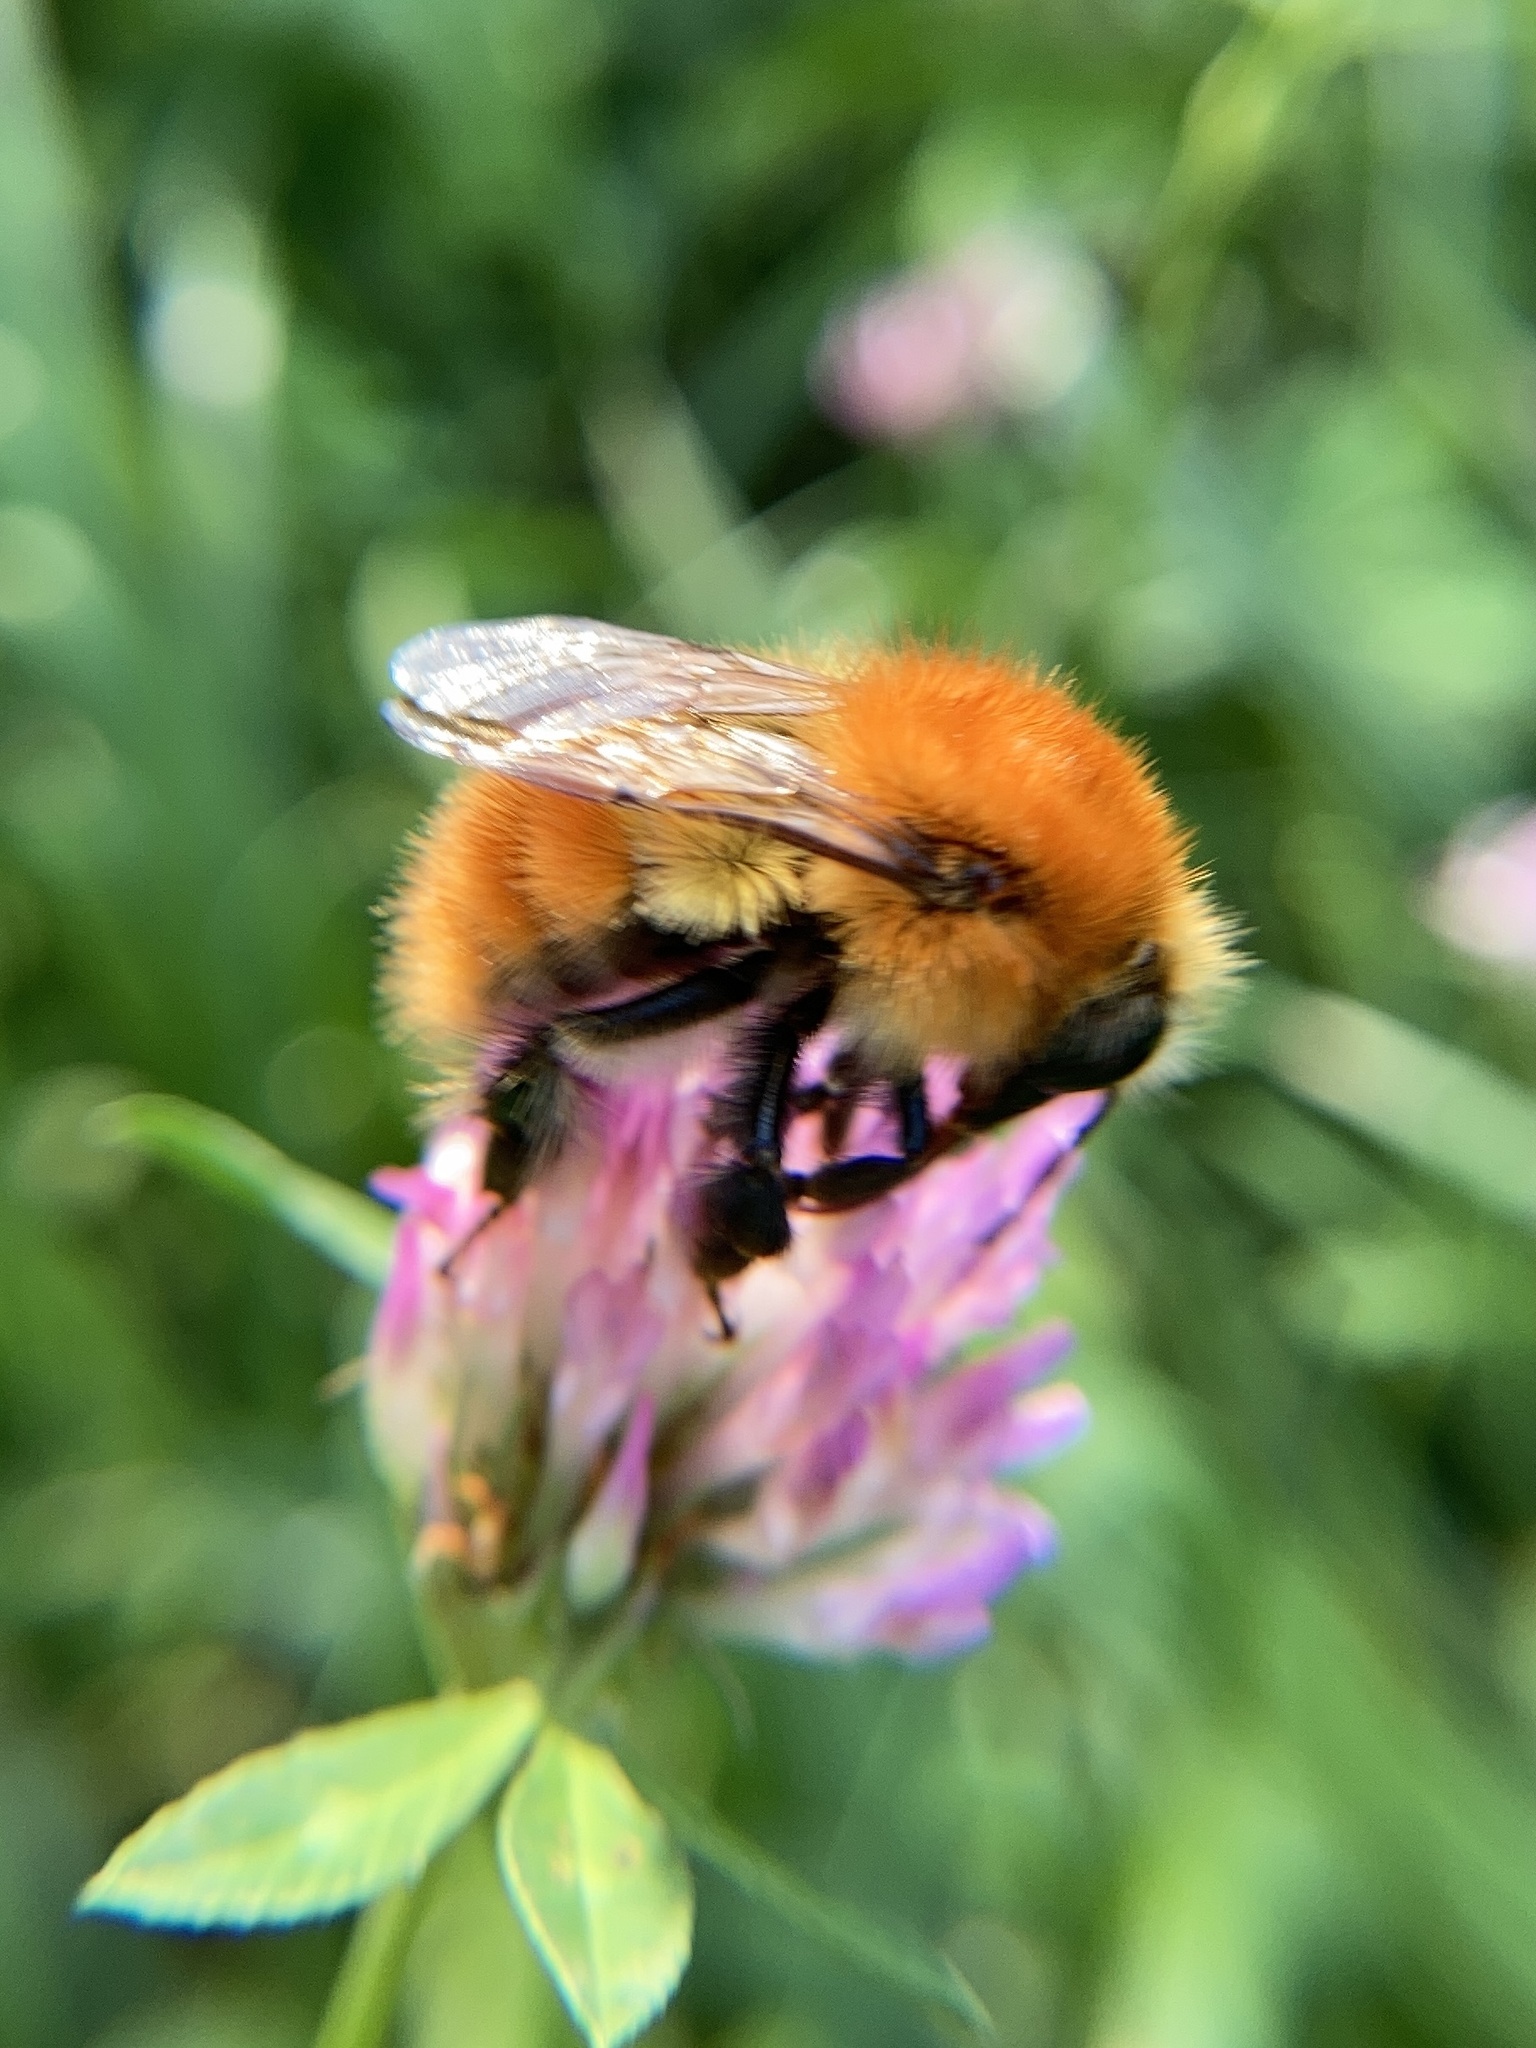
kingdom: Animalia
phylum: Arthropoda
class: Insecta
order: Hymenoptera
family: Apidae
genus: Bombus
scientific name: Bombus pascuorum
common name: Common carder bee
